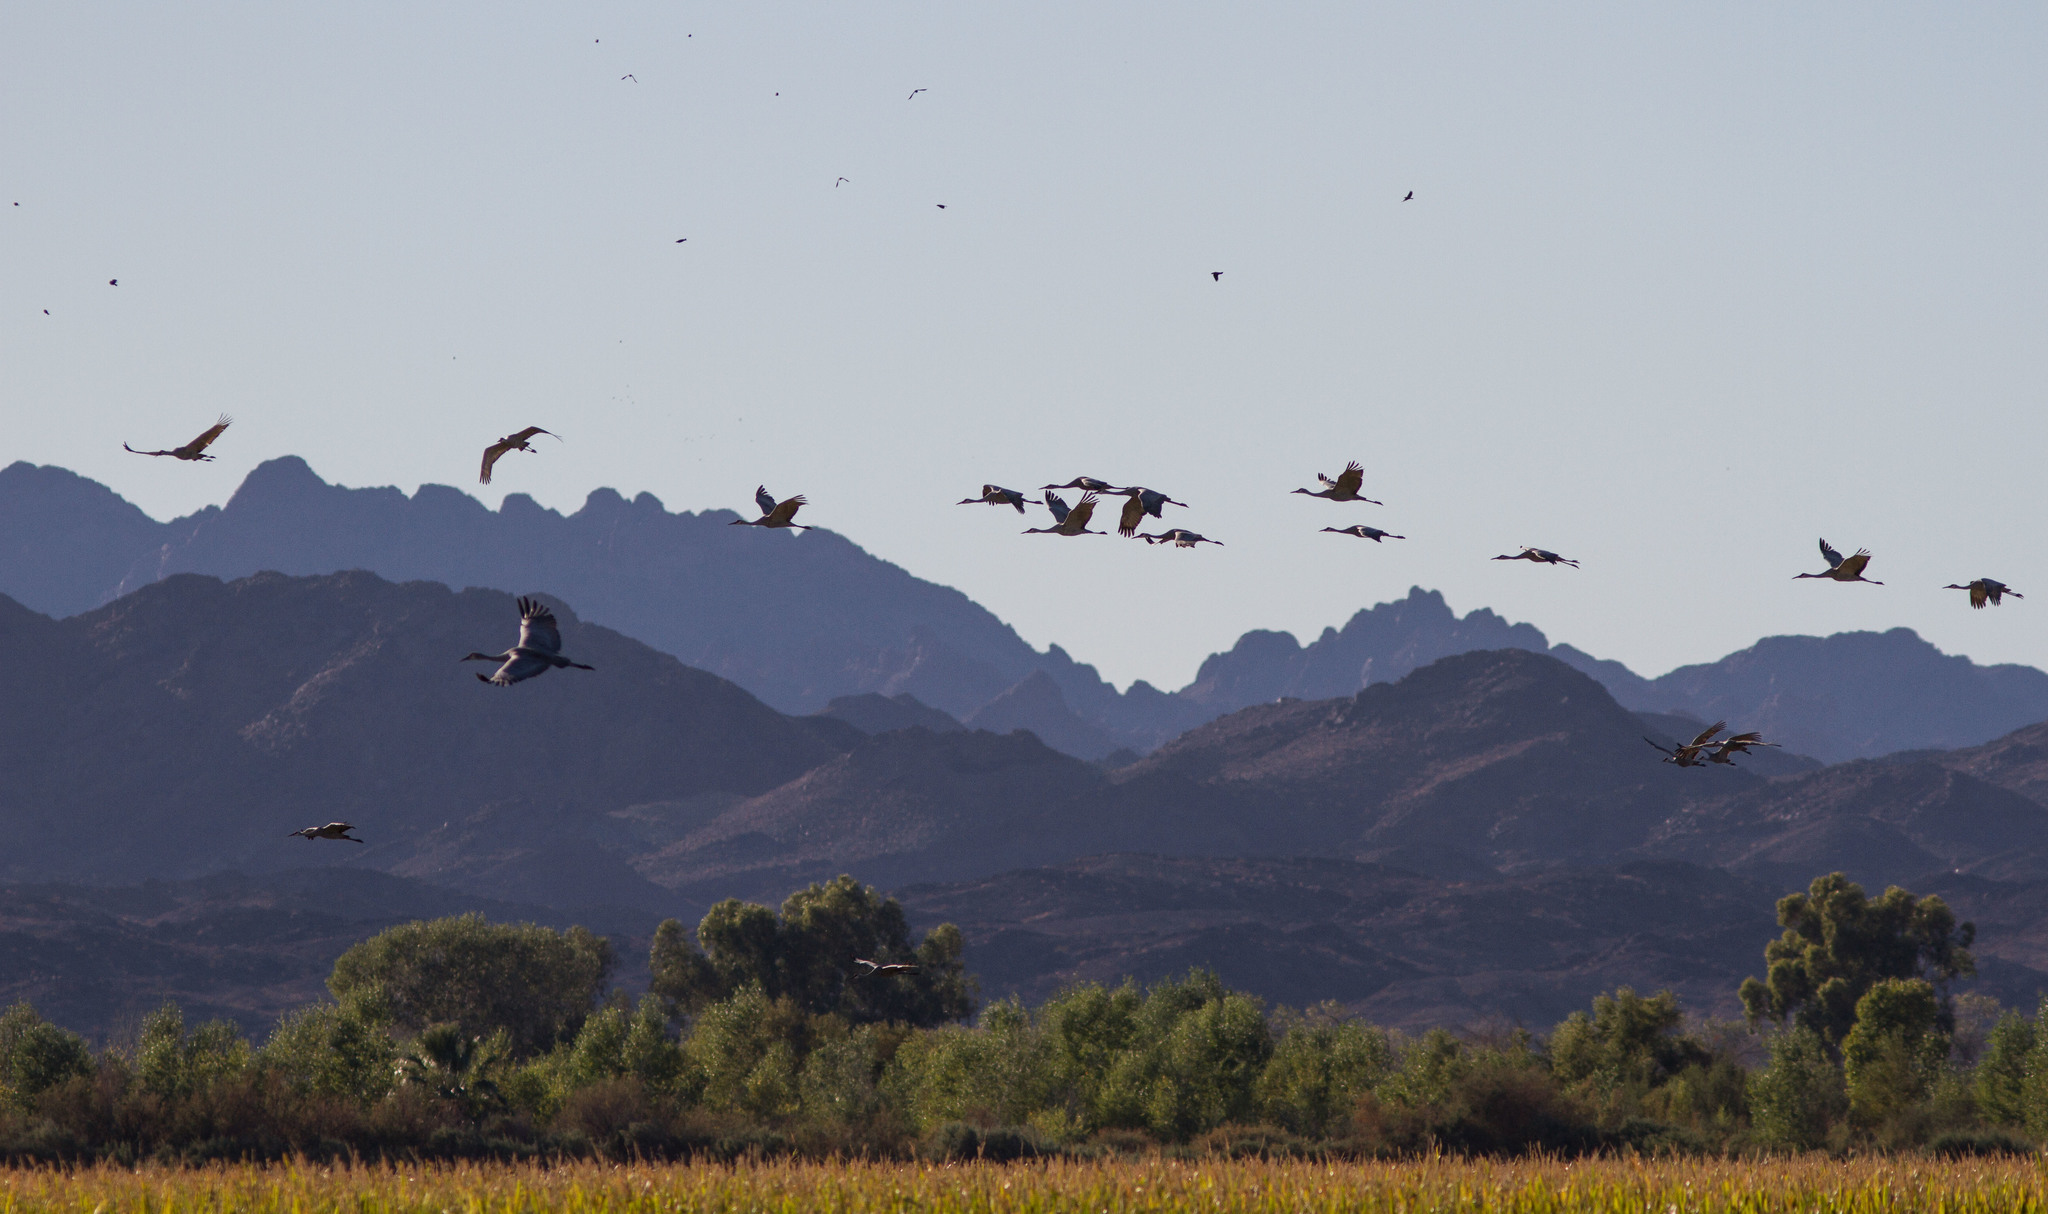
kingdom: Animalia
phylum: Chordata
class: Aves
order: Gruiformes
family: Gruidae
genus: Grus
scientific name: Grus canadensis
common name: Sandhill crane
